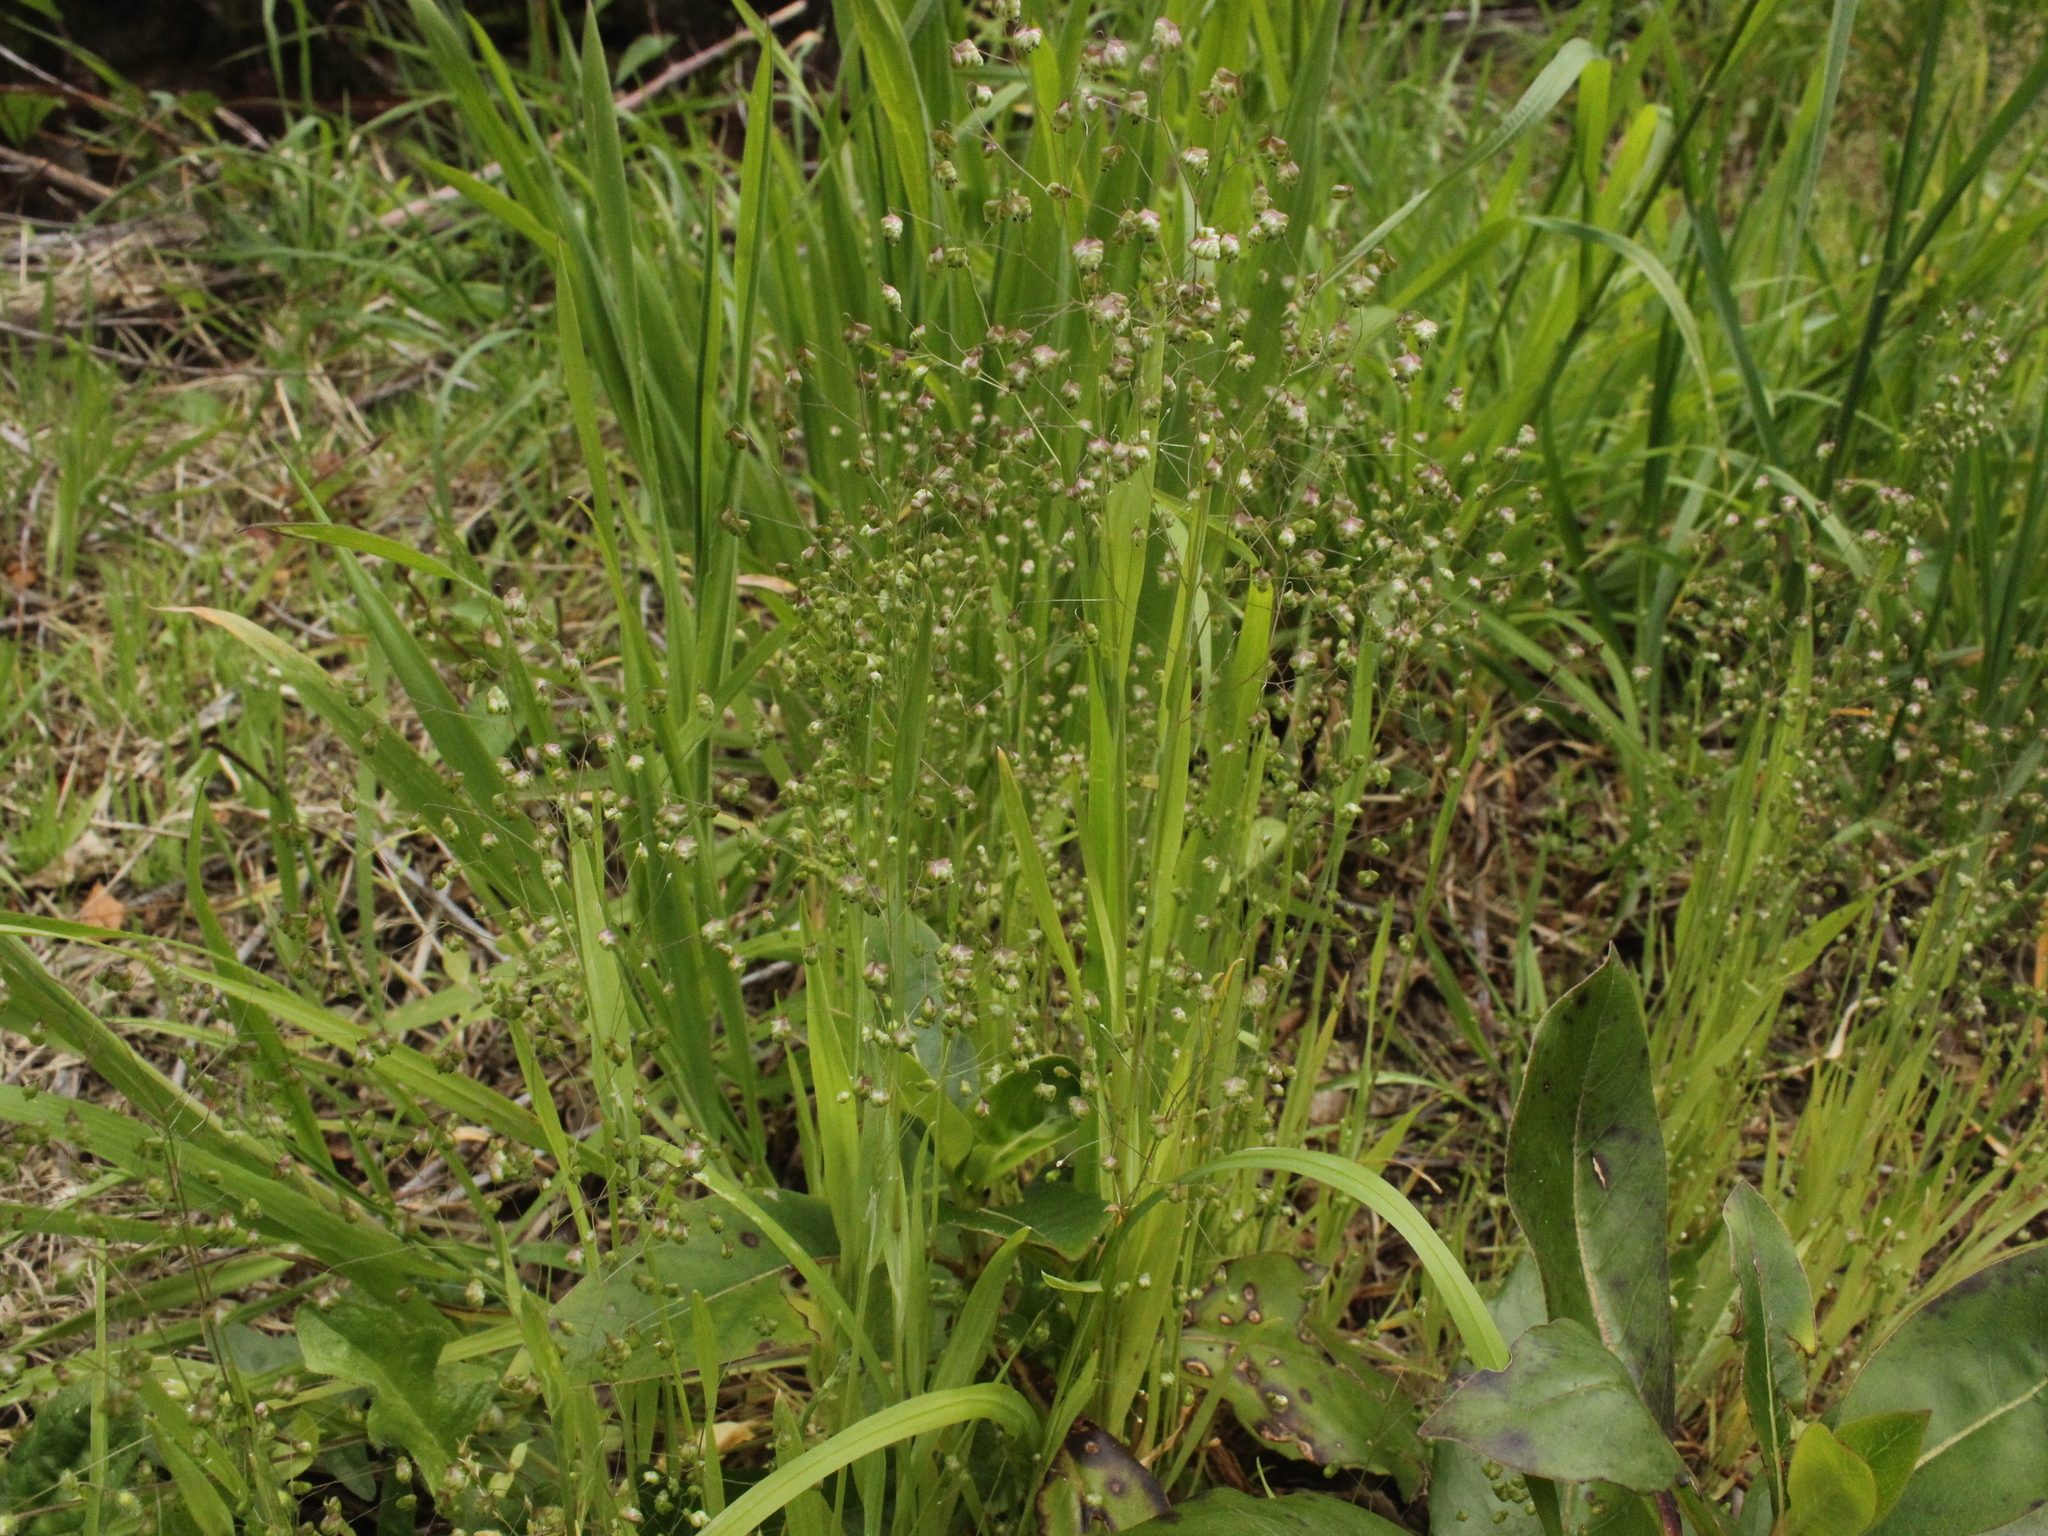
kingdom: Plantae
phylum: Tracheophyta
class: Liliopsida
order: Poales
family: Poaceae
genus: Briza
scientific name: Briza minor
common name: Lesser quaking-grass
